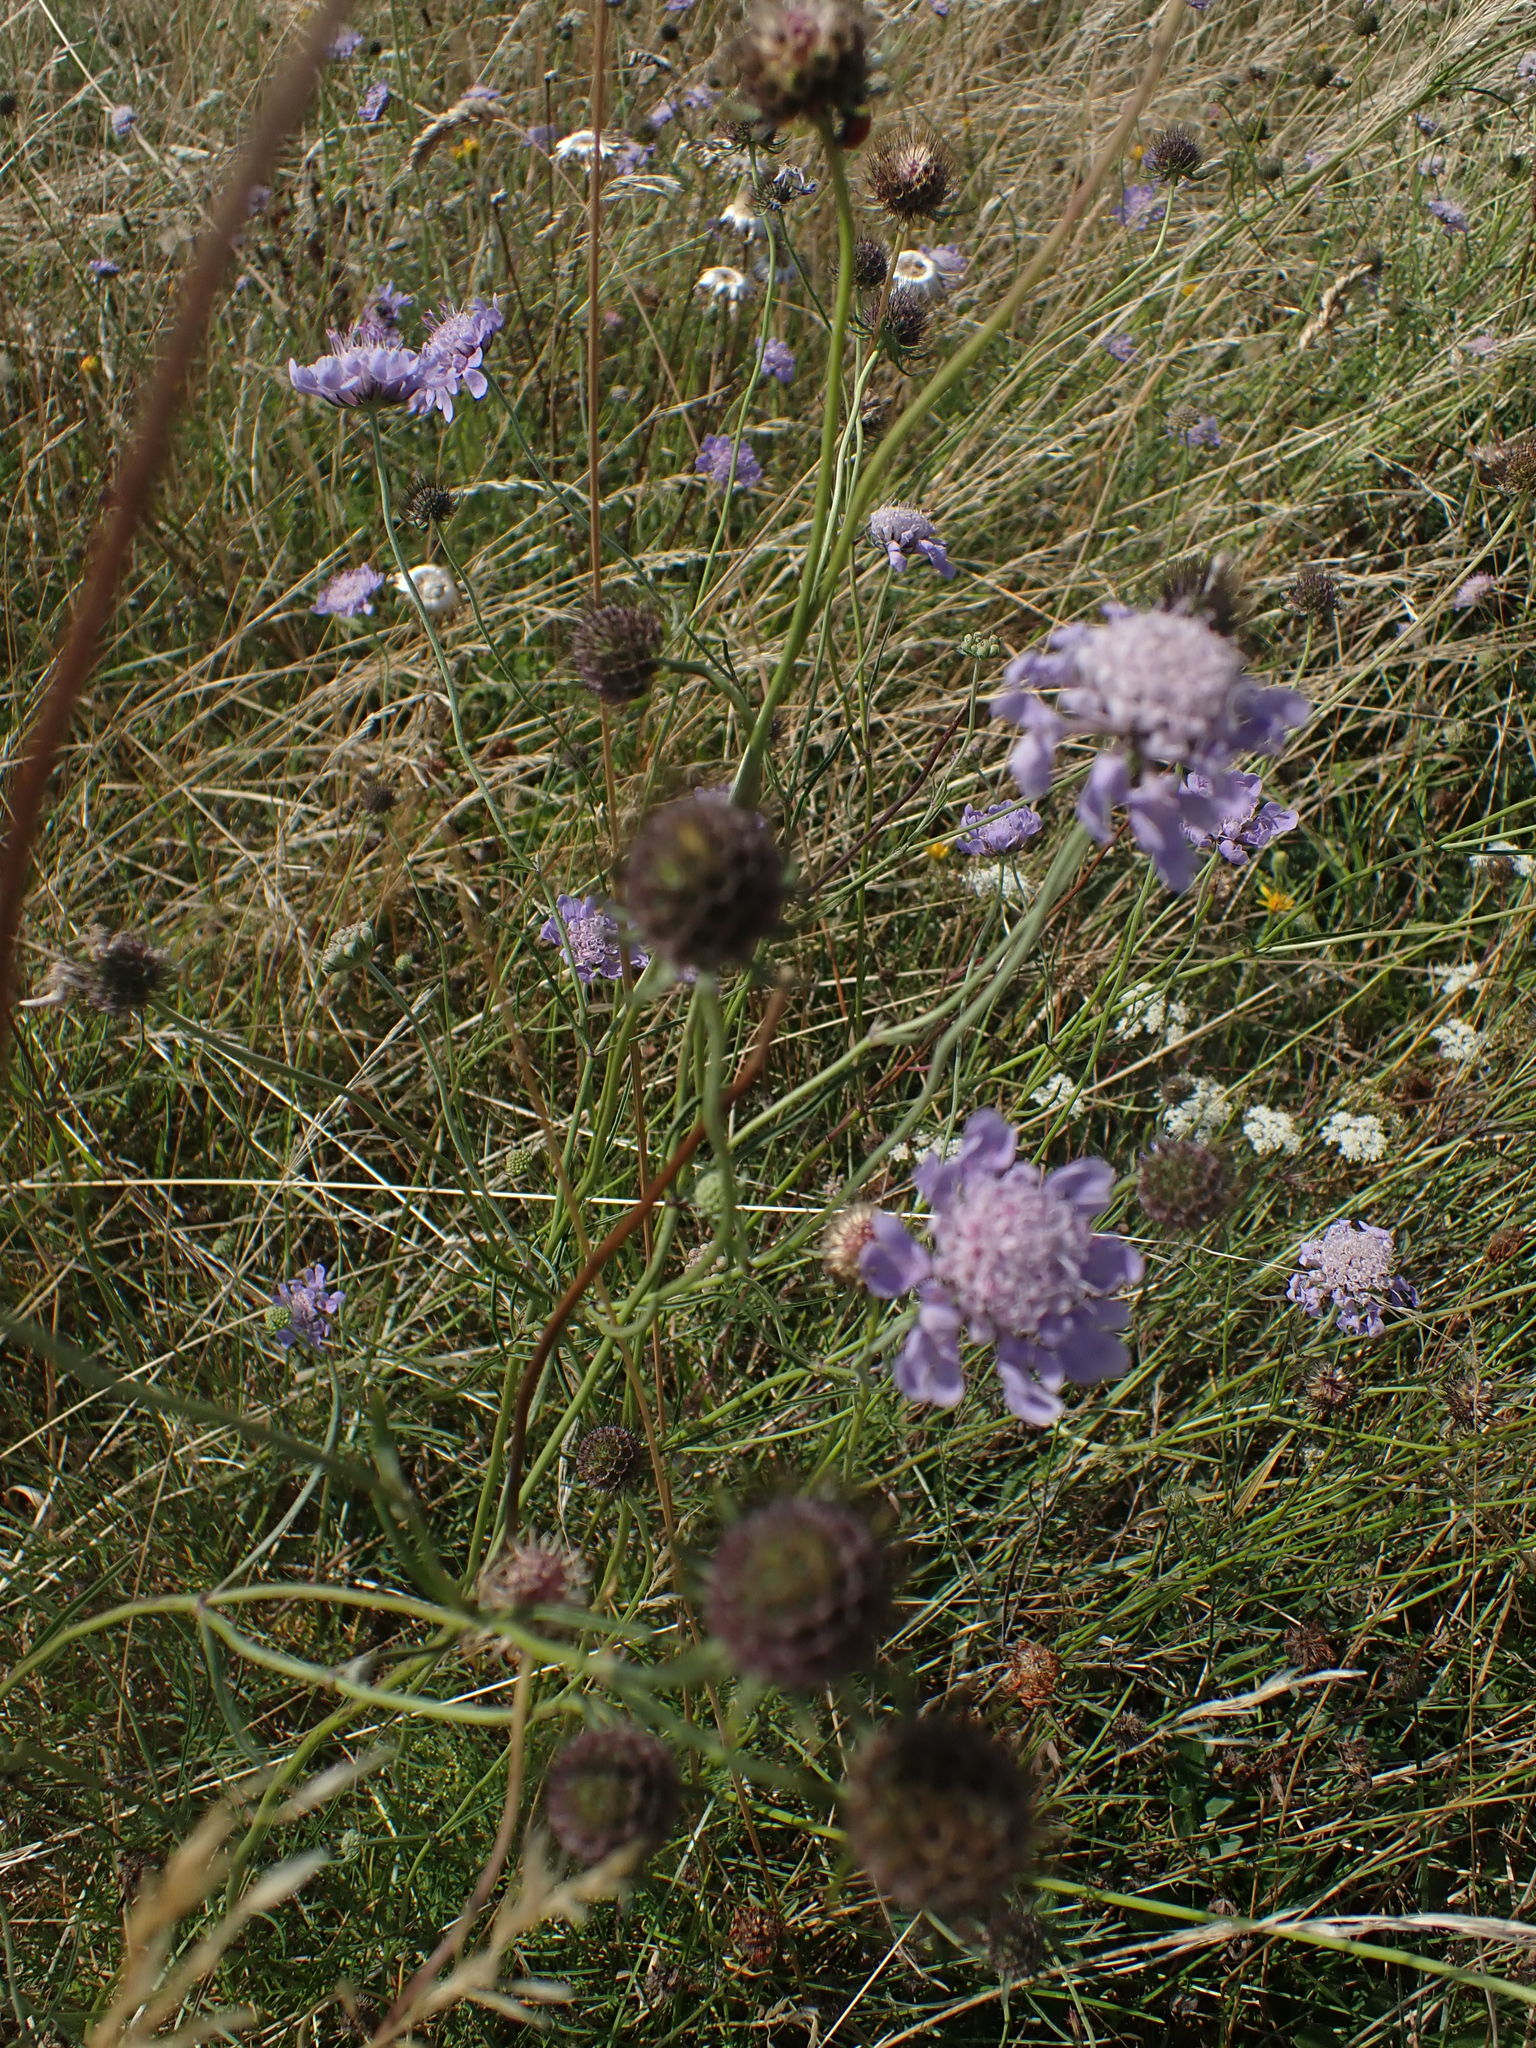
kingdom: Plantae
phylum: Tracheophyta
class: Magnoliopsida
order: Dipsacales
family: Caprifoliaceae
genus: Scabiosa
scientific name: Scabiosa columbaria
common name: Small scabious
